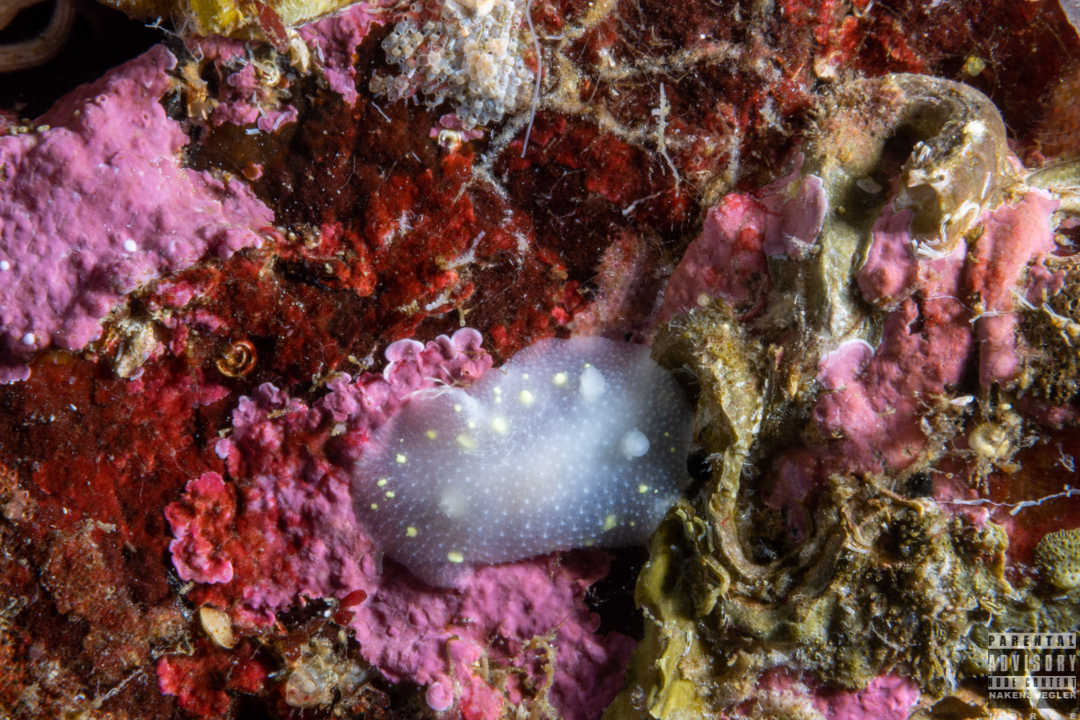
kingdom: Animalia
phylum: Mollusca
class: Gastropoda
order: Nudibranchia
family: Cadlinidae
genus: Cadlina
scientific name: Cadlina laevis
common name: White atlantic cadlina
